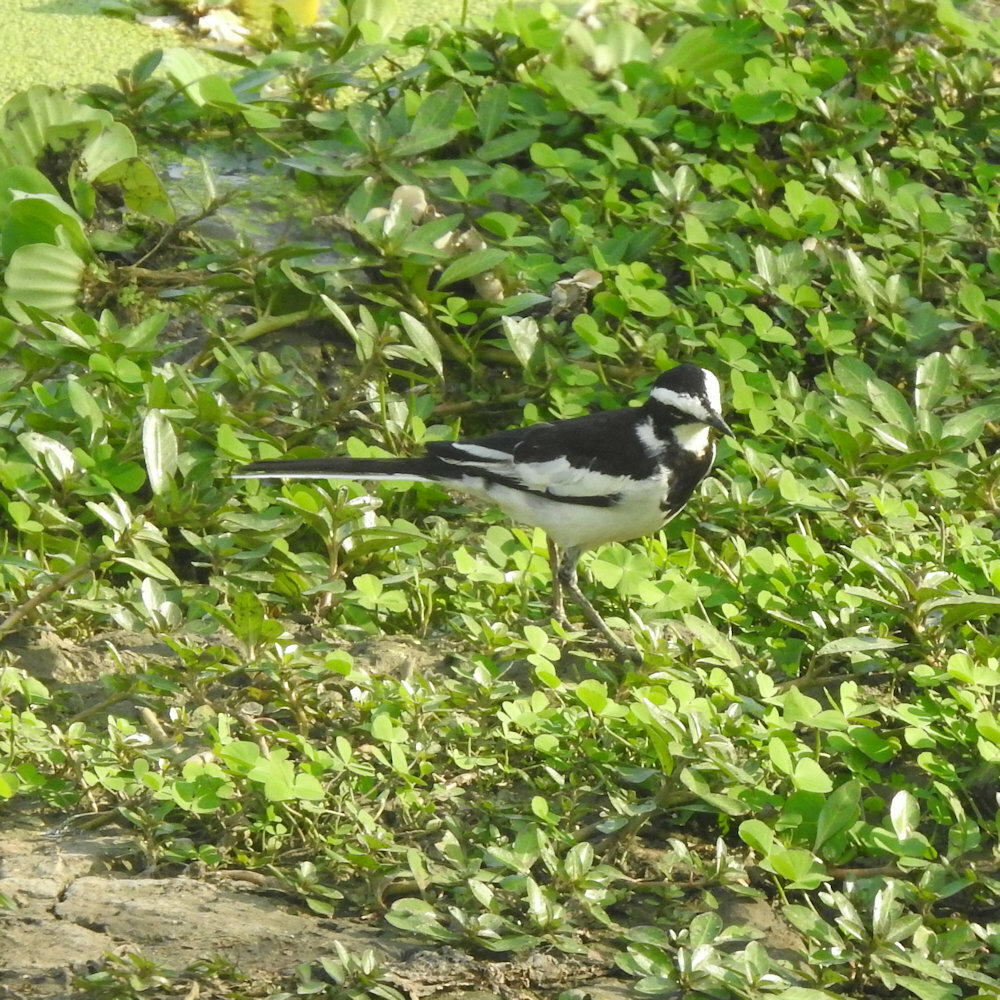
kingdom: Animalia
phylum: Chordata
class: Aves
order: Passeriformes
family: Motacillidae
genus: Motacilla
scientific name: Motacilla aguimp
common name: African pied wagtail
